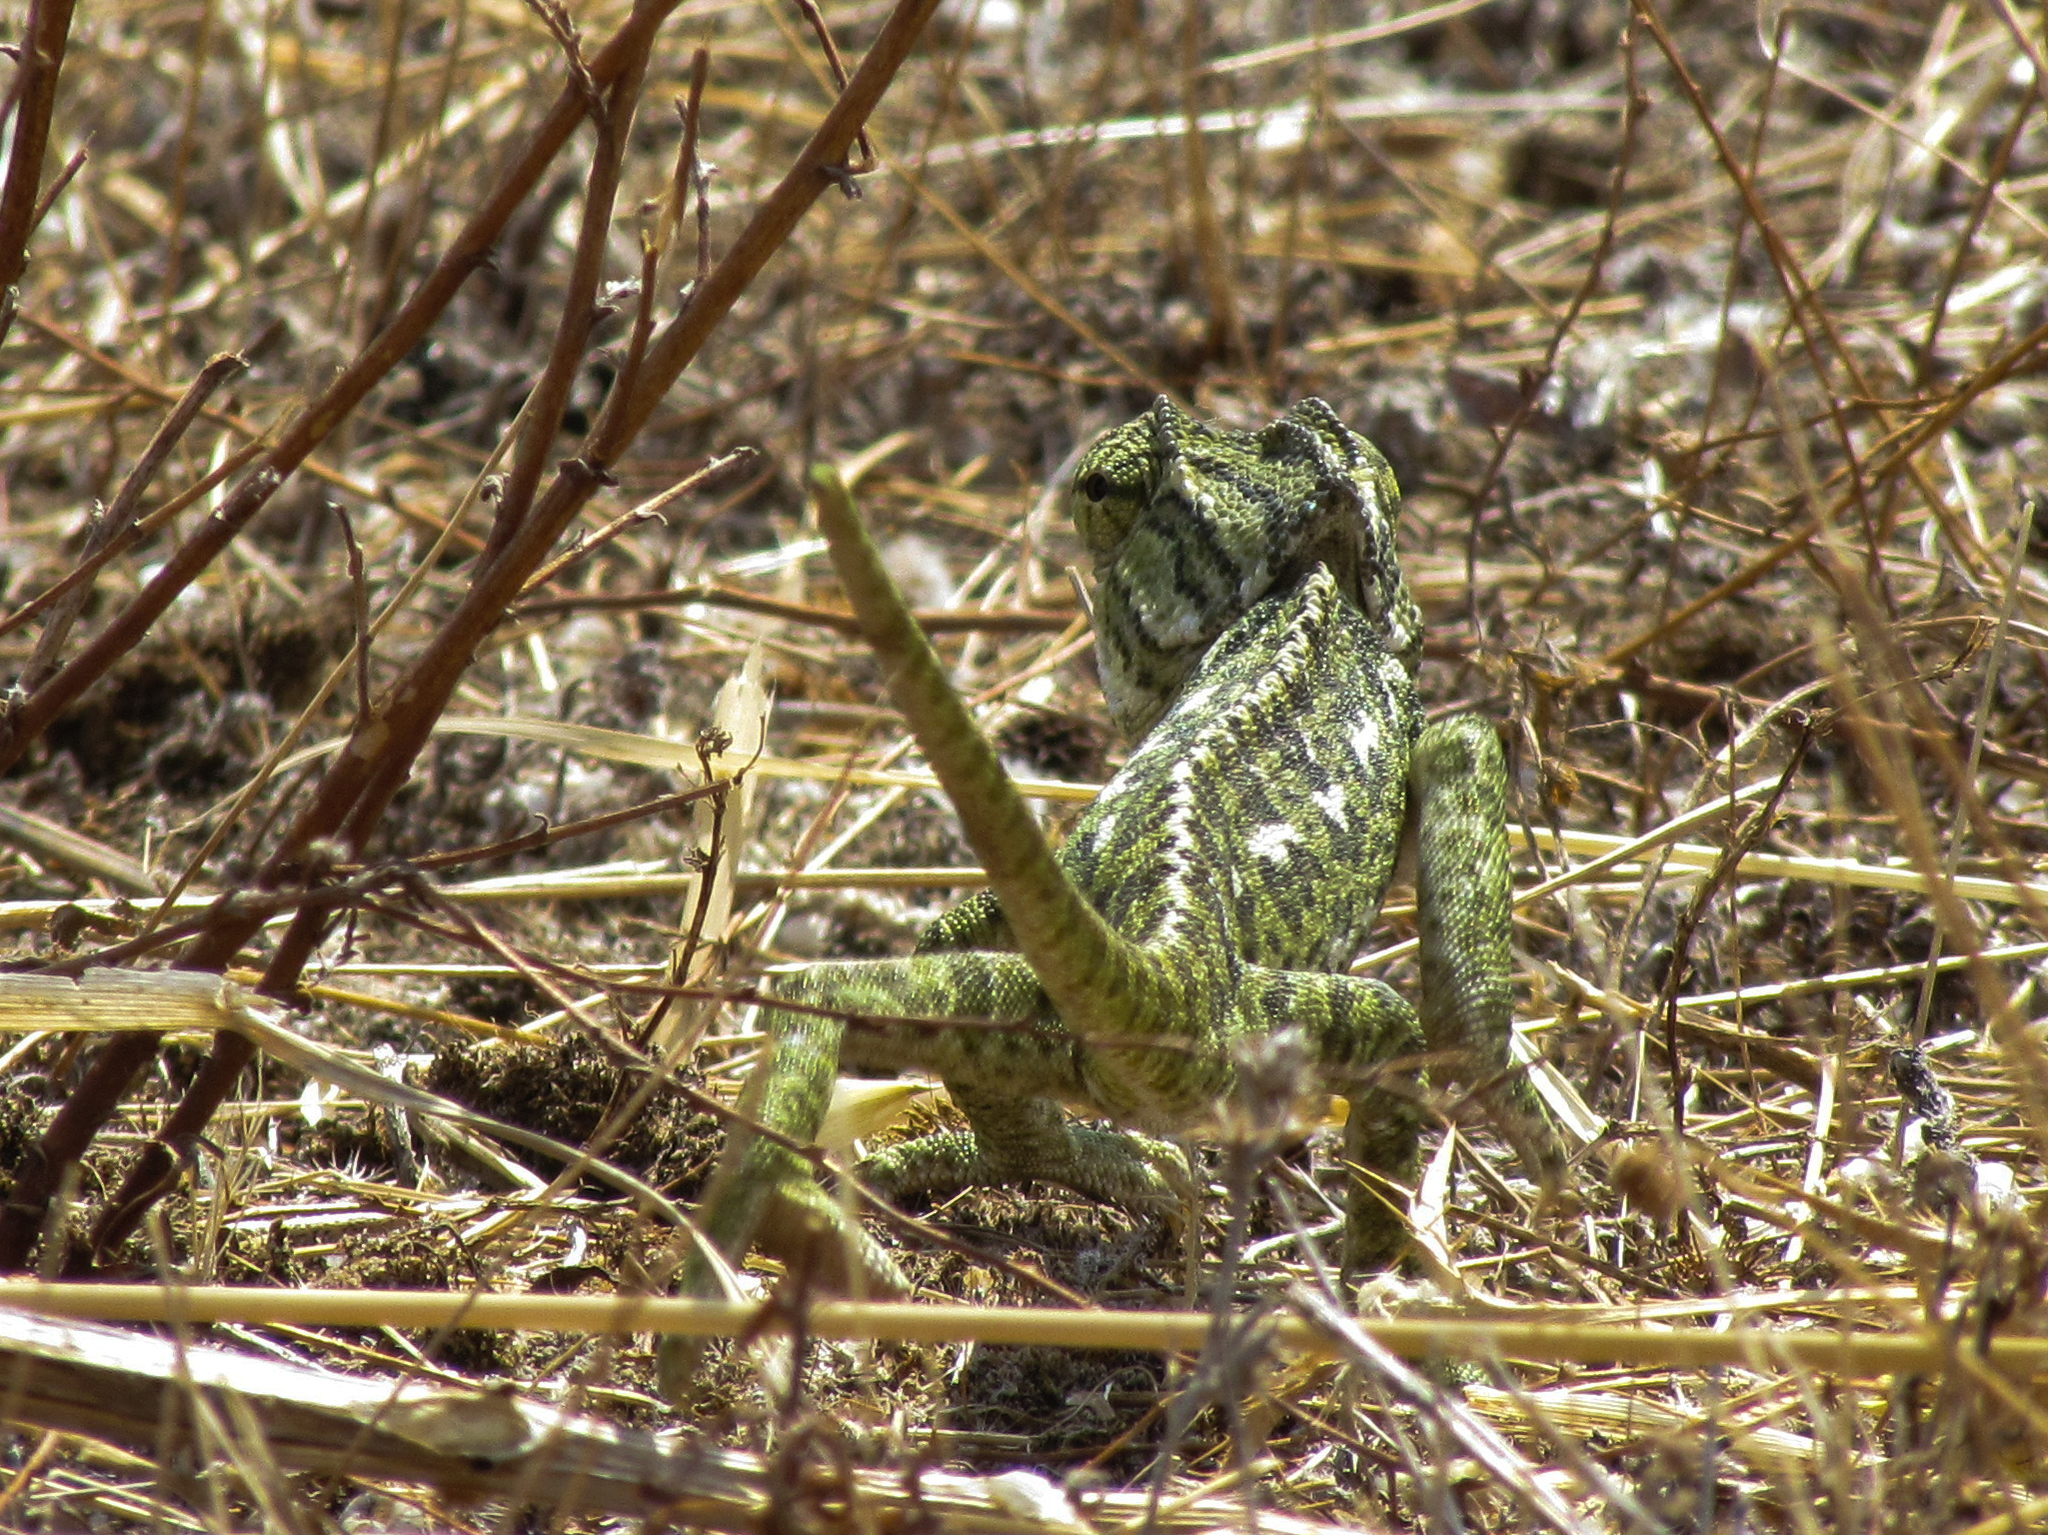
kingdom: Animalia
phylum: Chordata
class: Squamata
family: Chamaeleonidae
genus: Chamaeleo
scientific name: Chamaeleo chamaeleon
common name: Mediterranean chameleon
